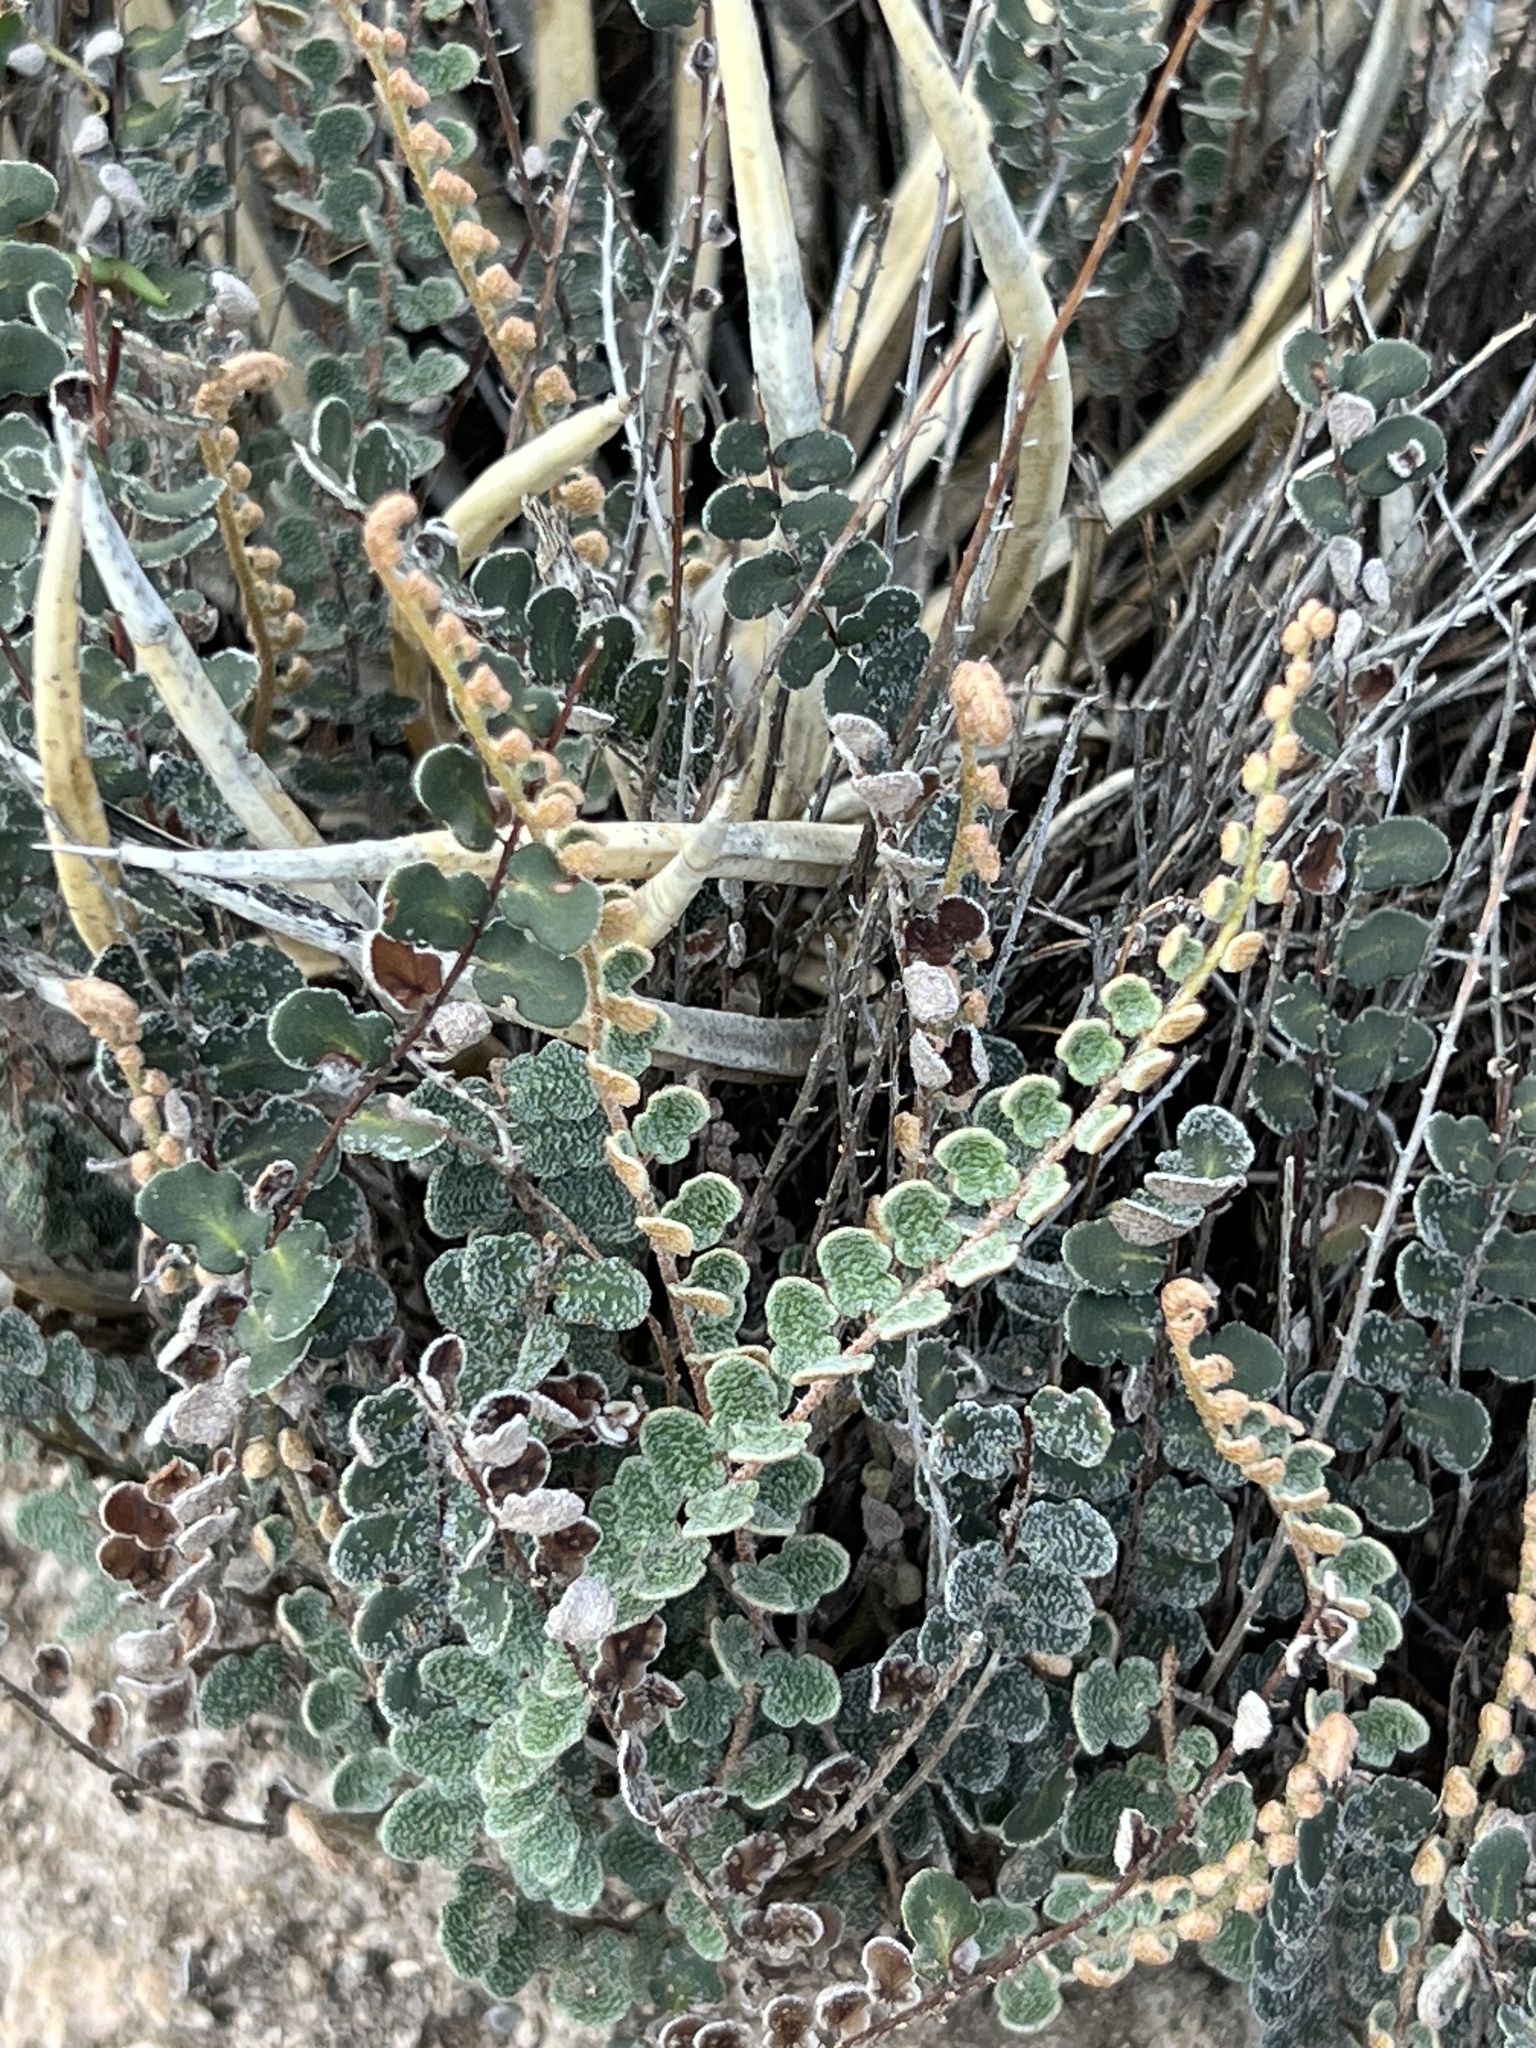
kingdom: Plantae
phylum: Tracheophyta
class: Polypodiopsida
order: Polypodiales
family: Pteridaceae
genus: Astrolepis
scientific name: Astrolepis cochisensis
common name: Scaly cloak fern
